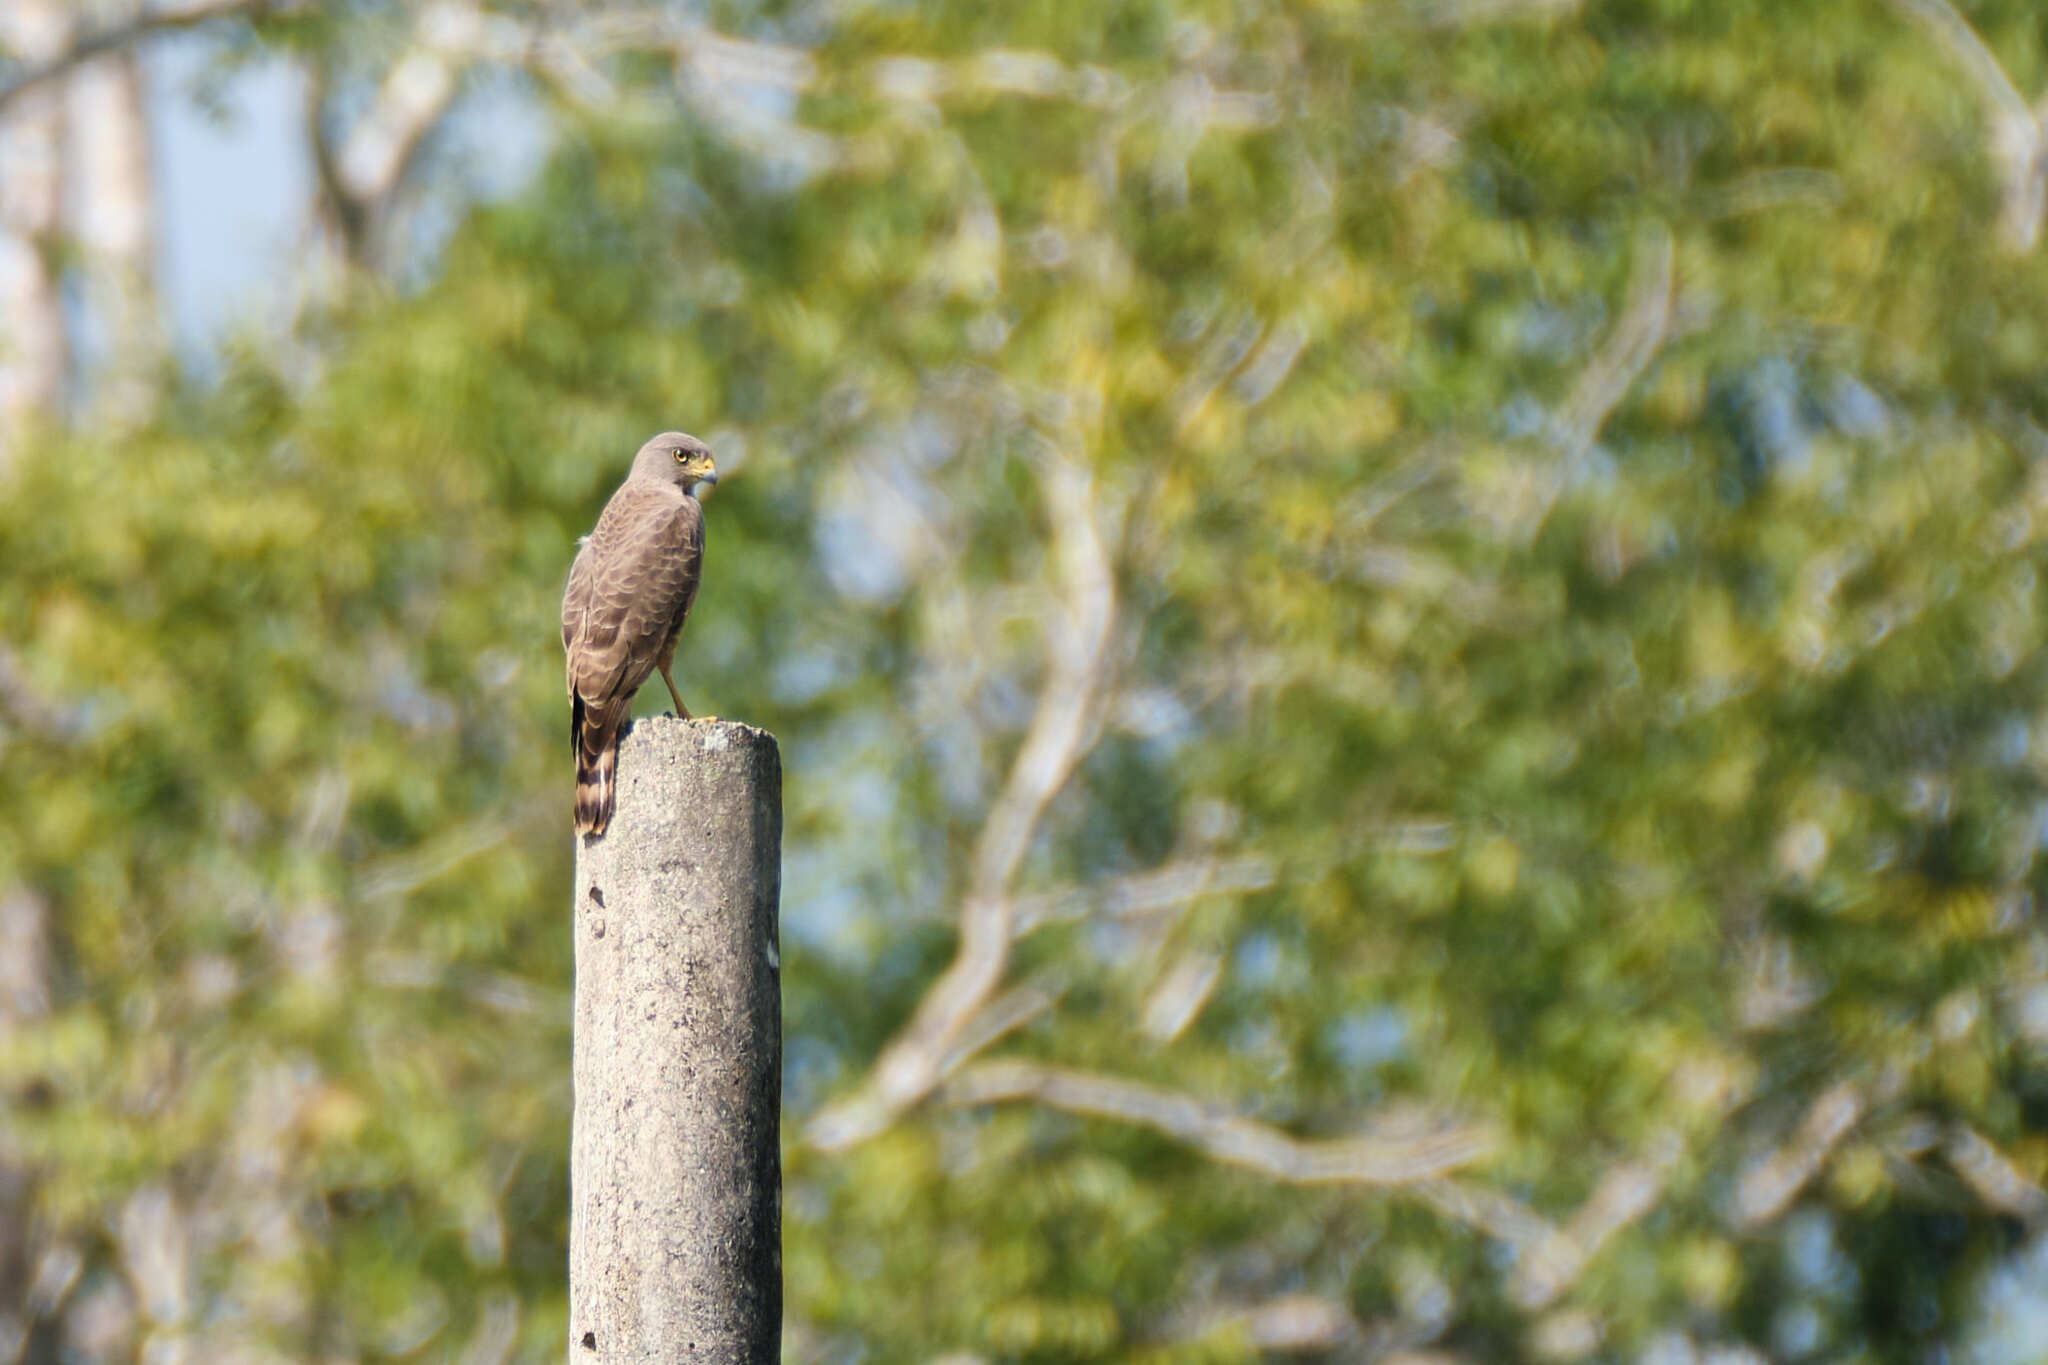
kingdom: Animalia
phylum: Chordata
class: Aves
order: Accipitriformes
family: Accipitridae
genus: Rupornis
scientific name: Rupornis magnirostris
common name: Roadside hawk
